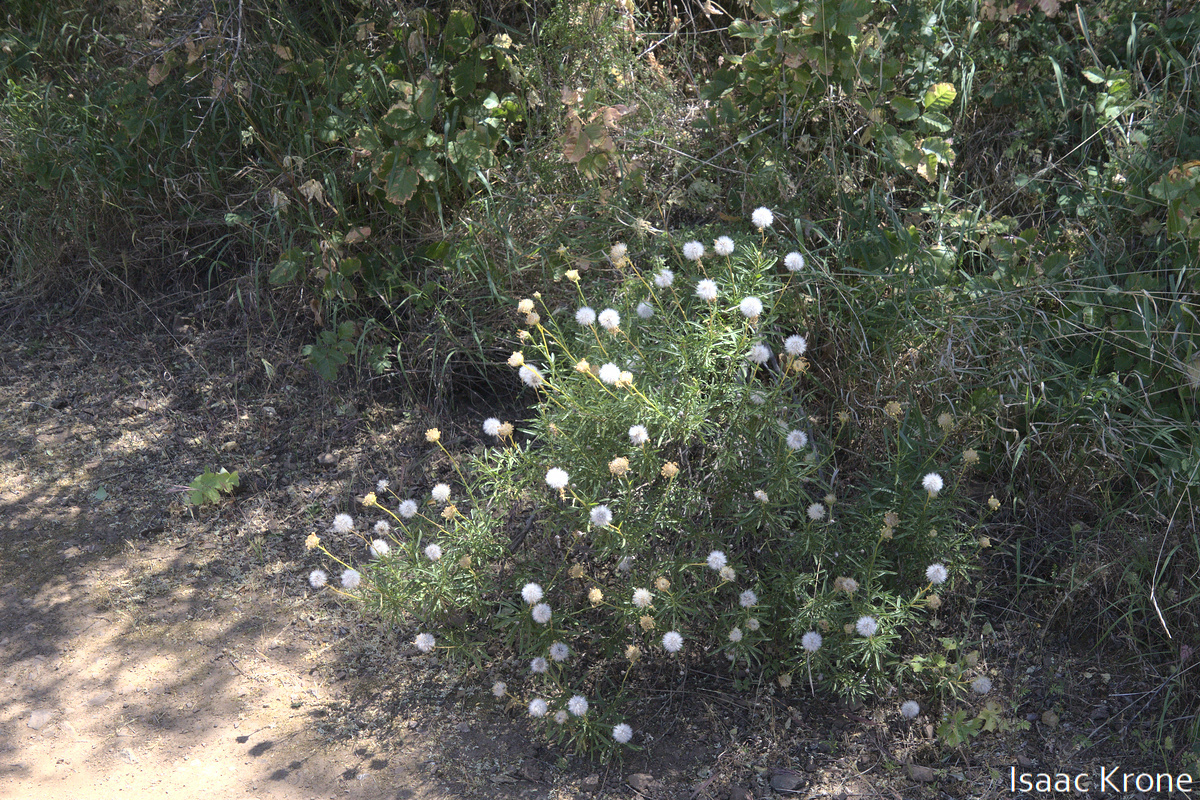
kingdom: Plantae
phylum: Tracheophyta
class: Magnoliopsida
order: Asterales
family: Asteraceae
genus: Ericameria
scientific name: Ericameria linearifolia
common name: Interior goldenbush
